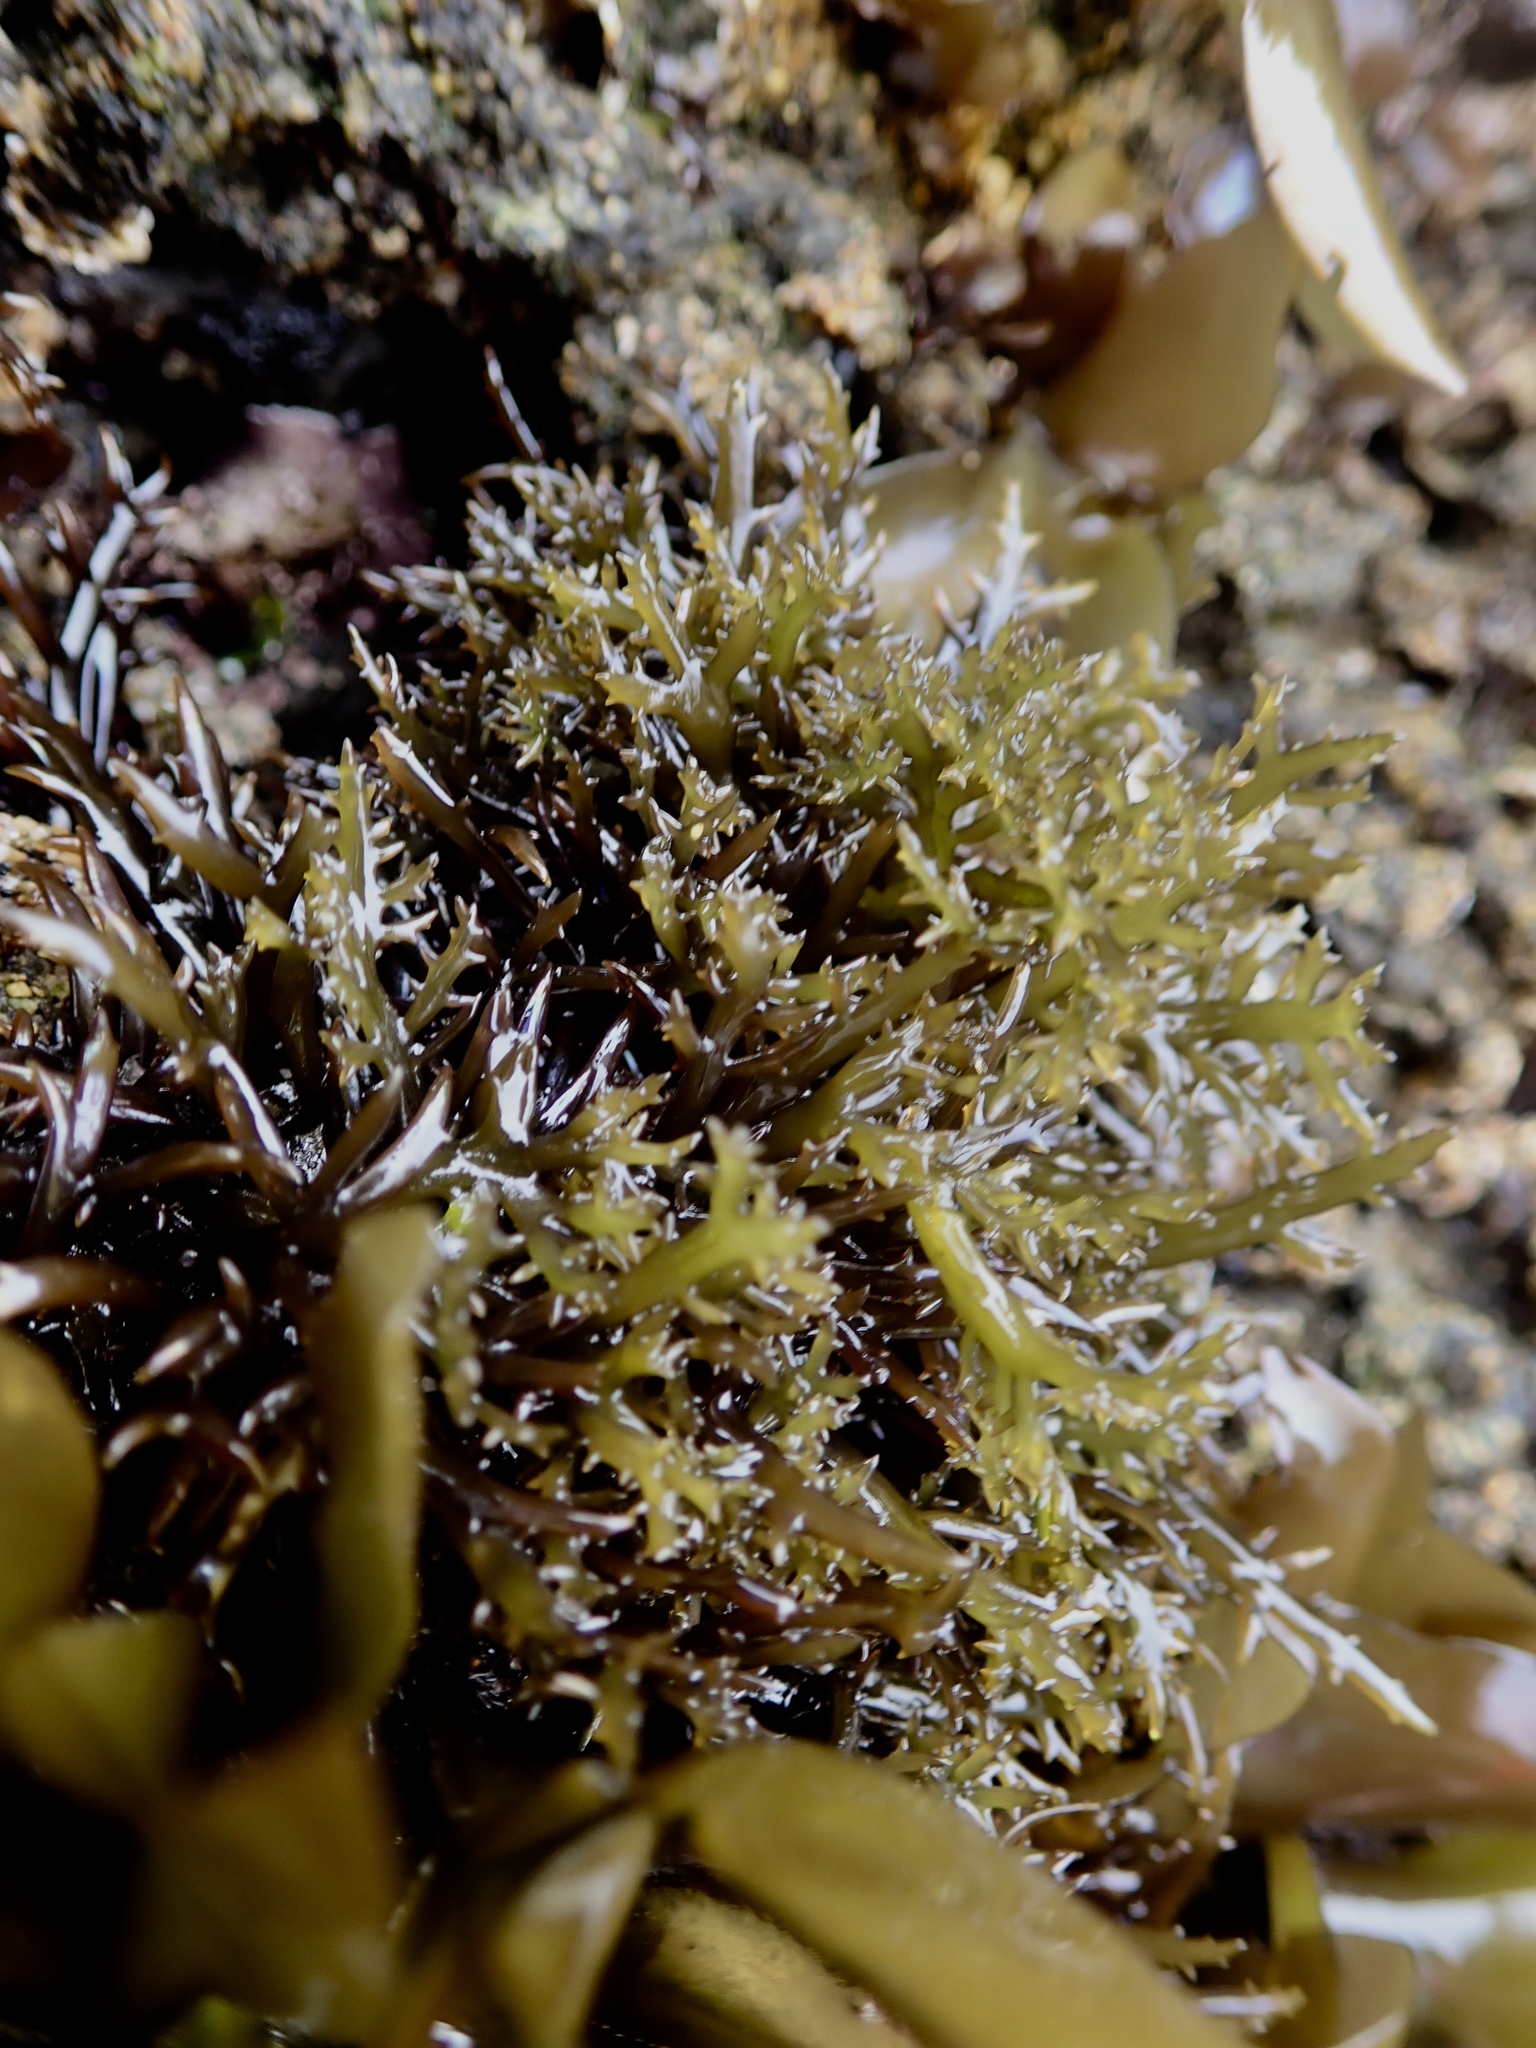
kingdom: Plantae
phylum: Rhodophyta
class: Florideophyceae
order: Gigartinales
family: Gigartinaceae
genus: Chondracanthus
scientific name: Chondracanthus canaliculatus
